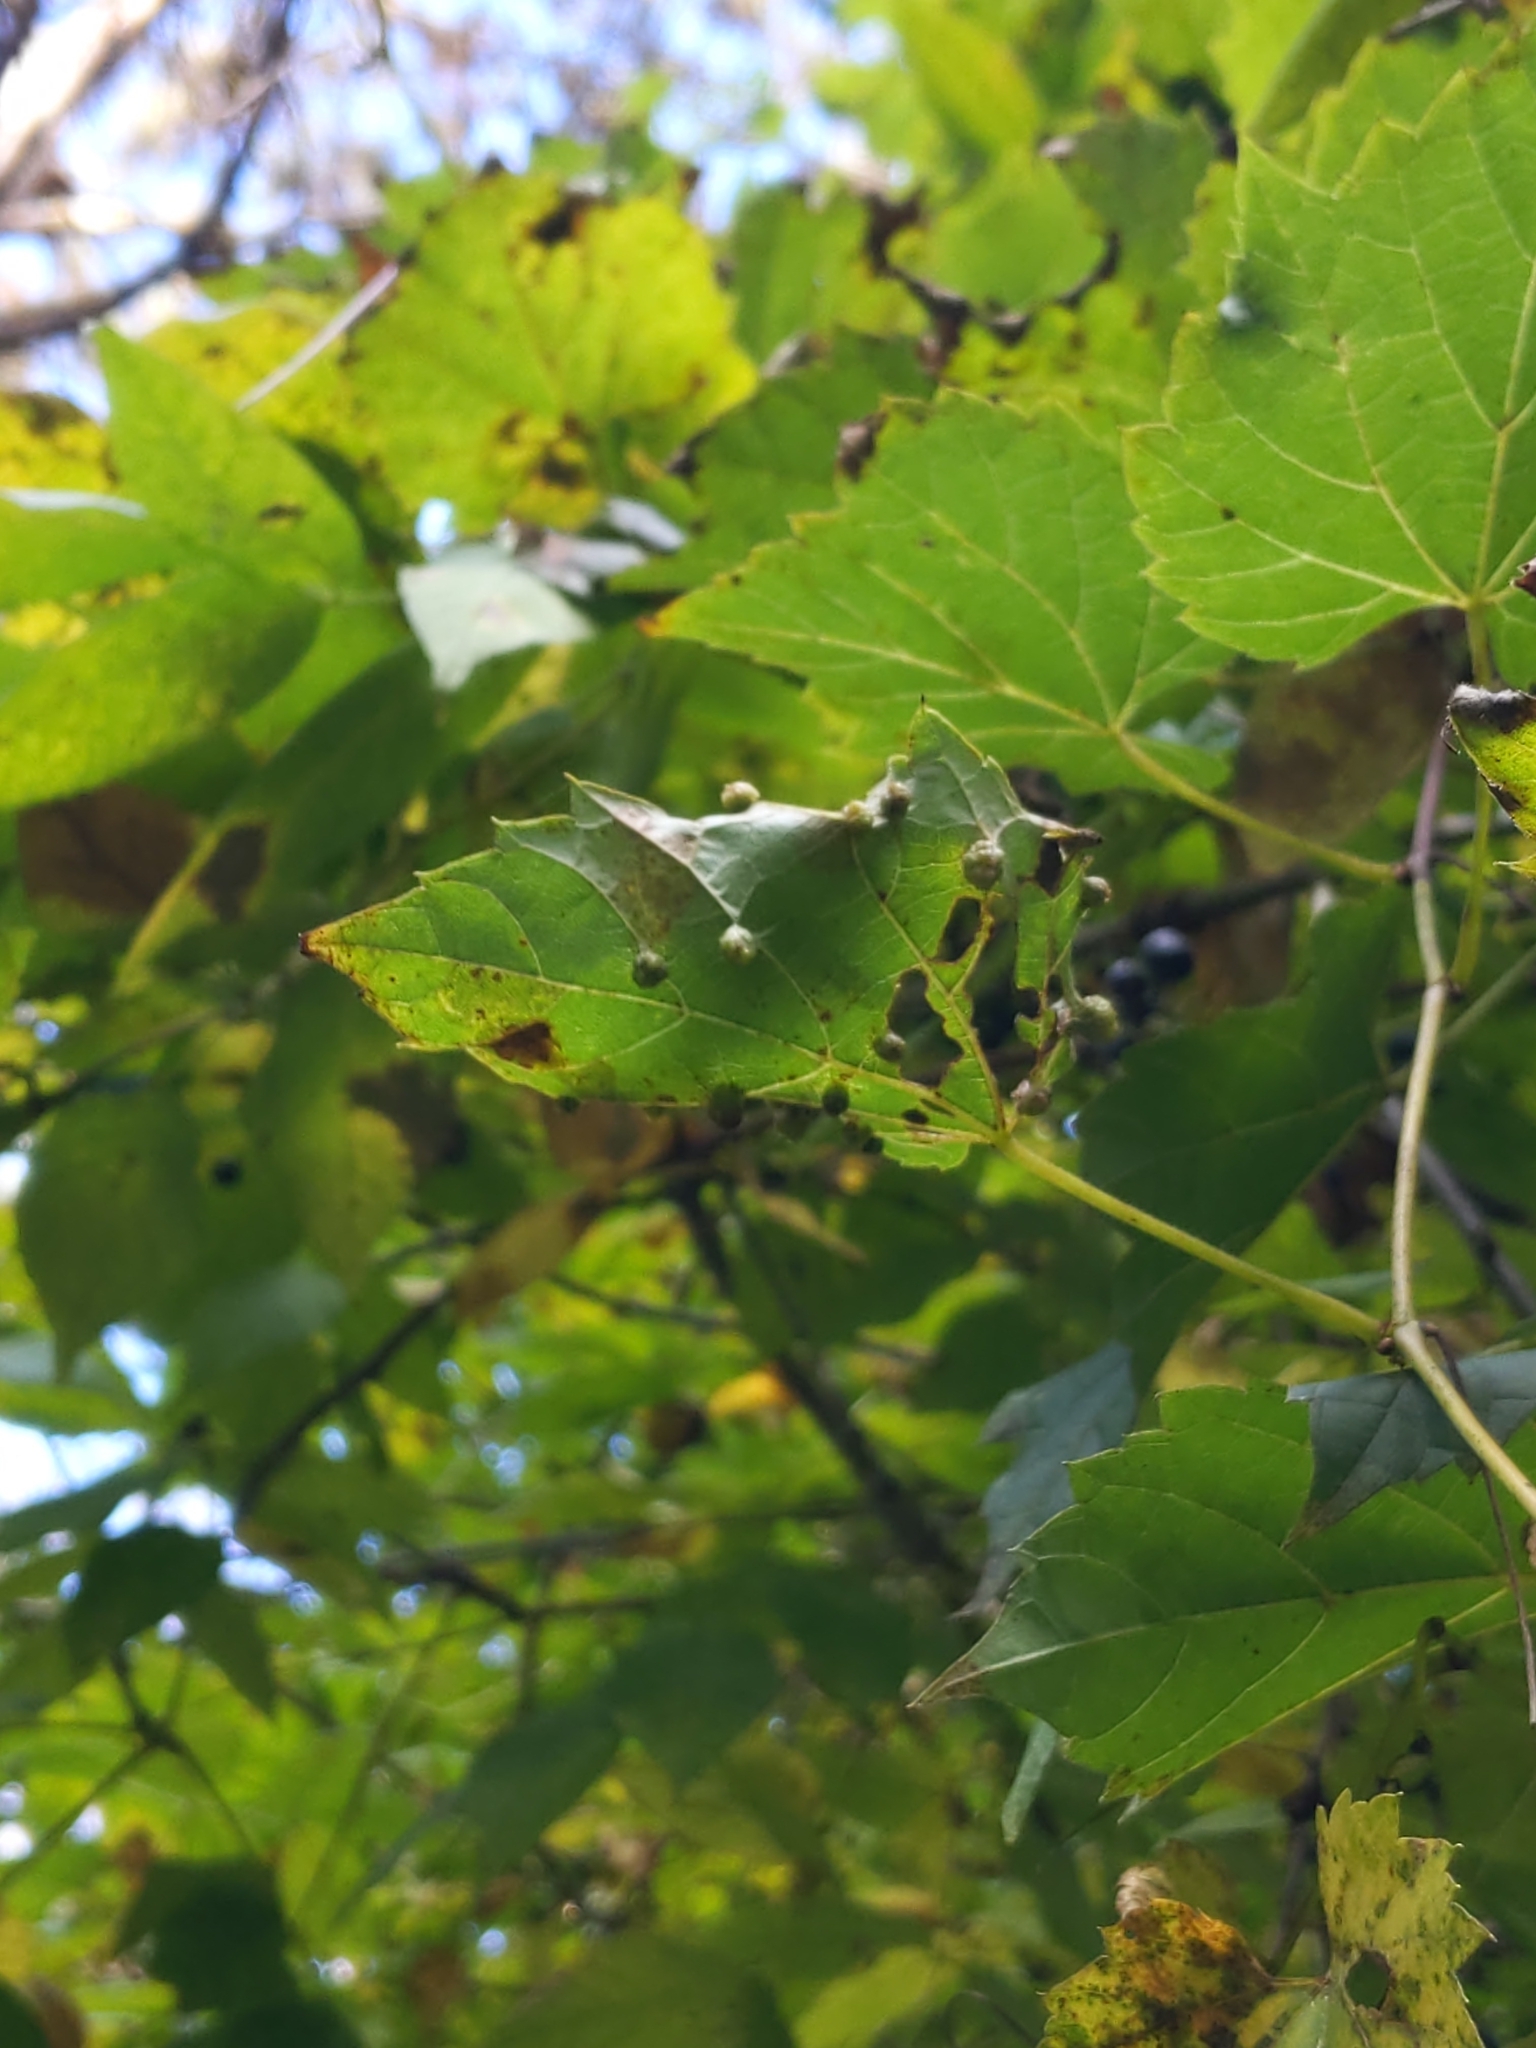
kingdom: Plantae
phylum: Tracheophyta
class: Magnoliopsida
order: Vitales
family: Vitaceae
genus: Vitis
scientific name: Vitis riparia
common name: Frost grape
